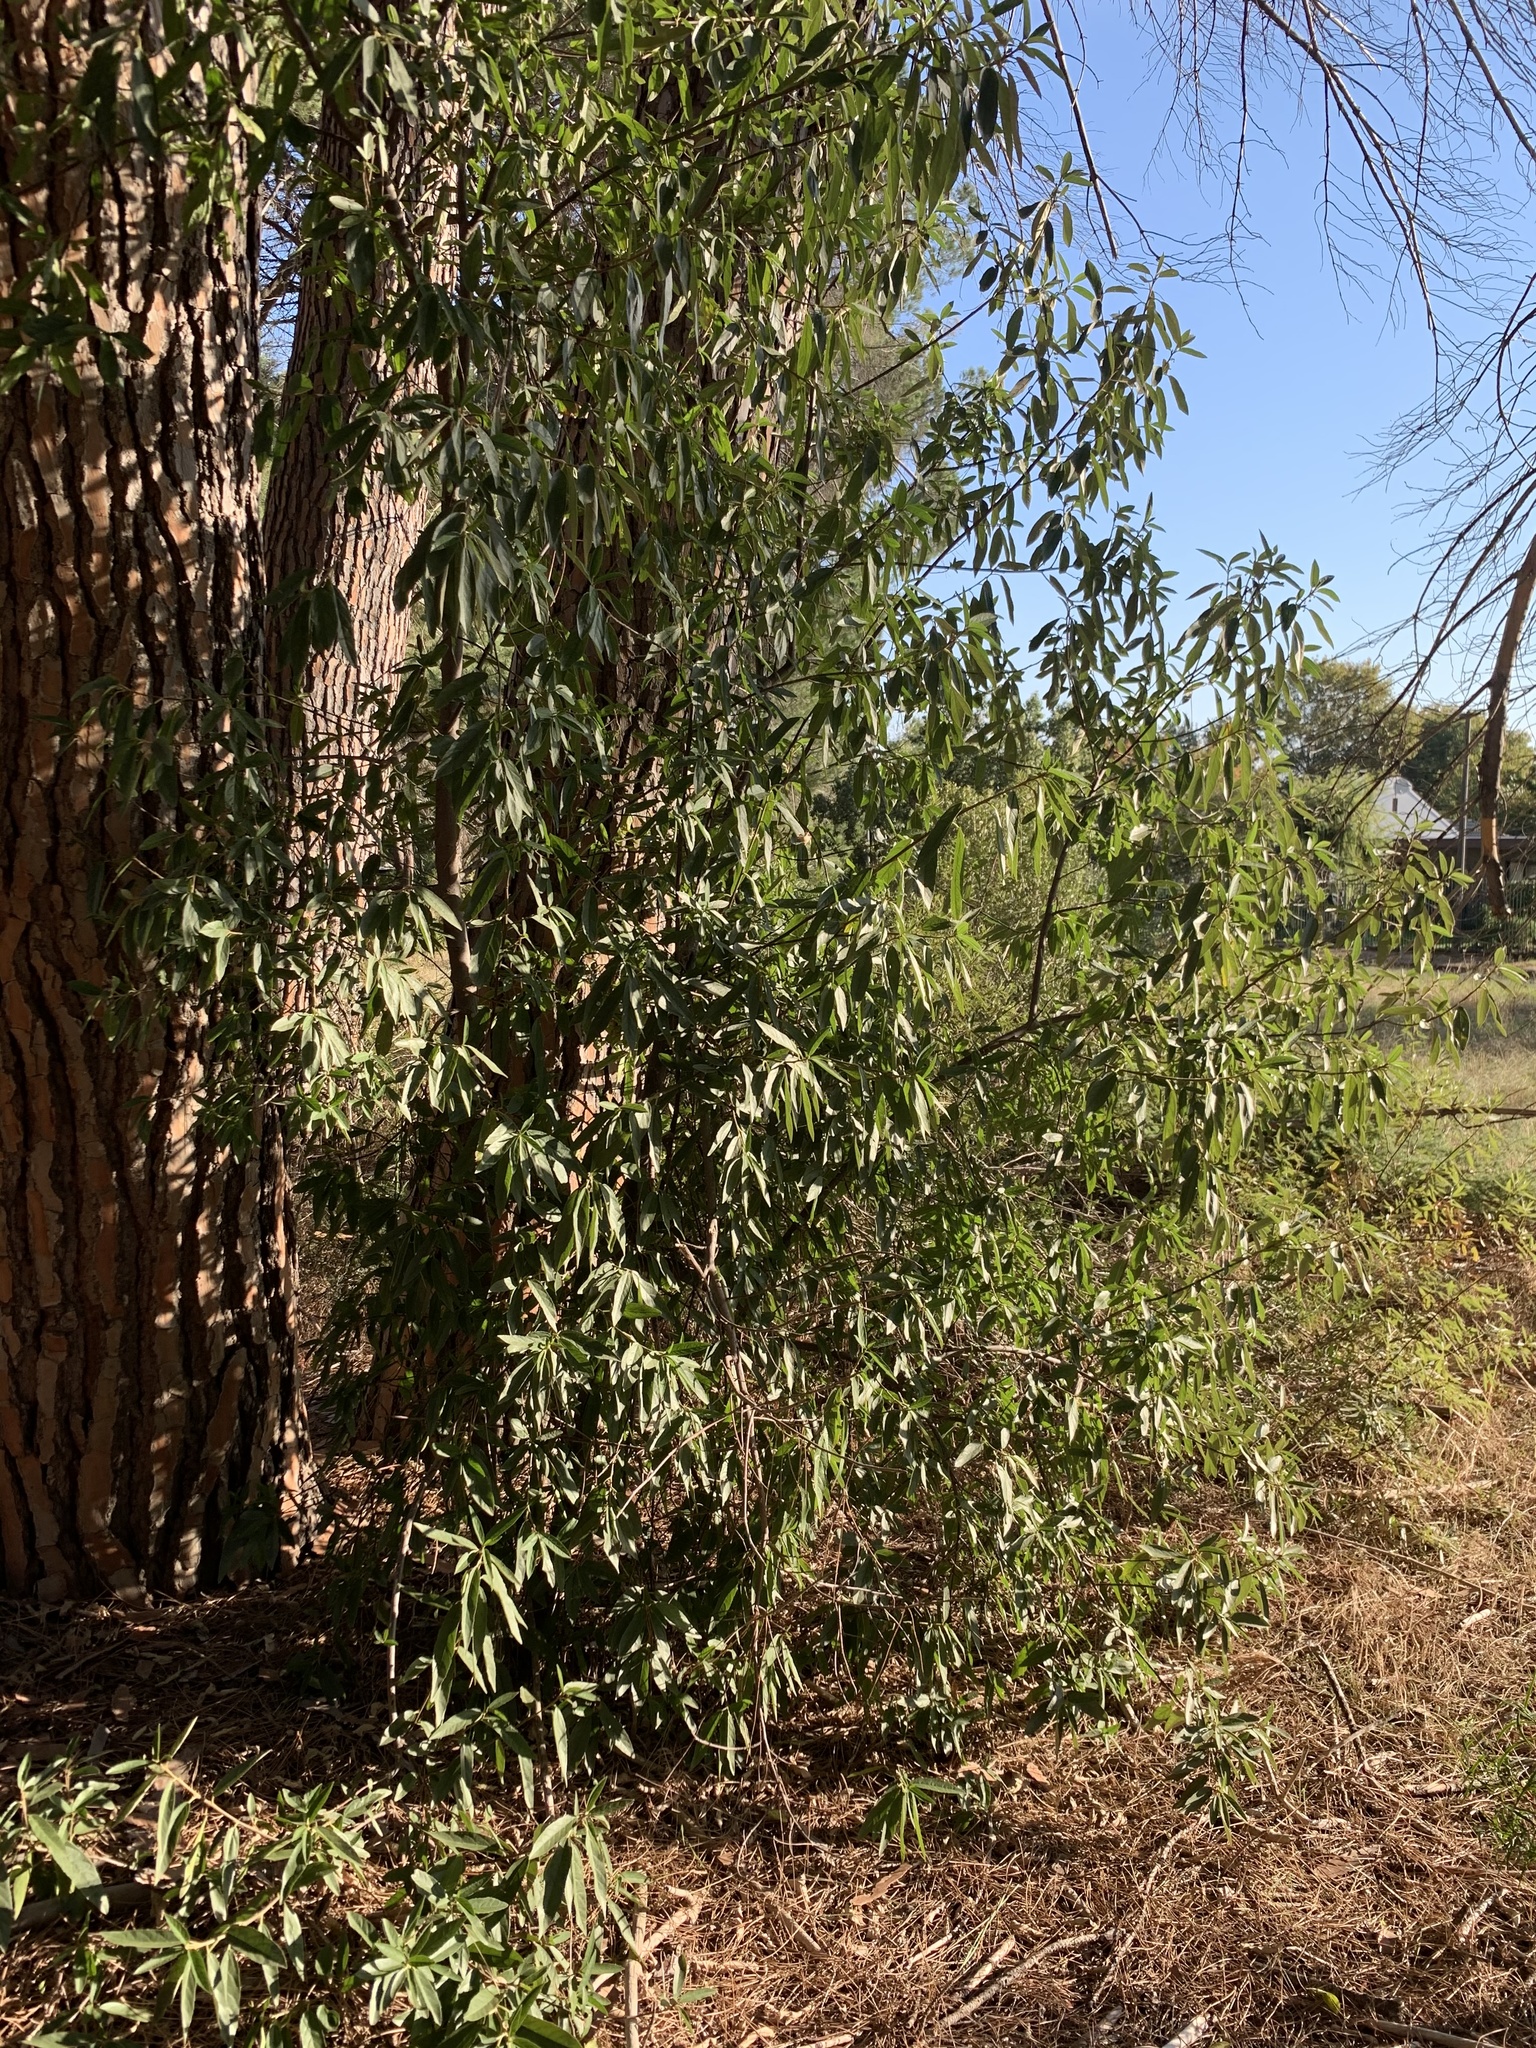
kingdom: Plantae
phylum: Tracheophyta
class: Magnoliopsida
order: Malpighiales
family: Achariaceae
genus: Kiggelaria
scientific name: Kiggelaria africana
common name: Wild peach
